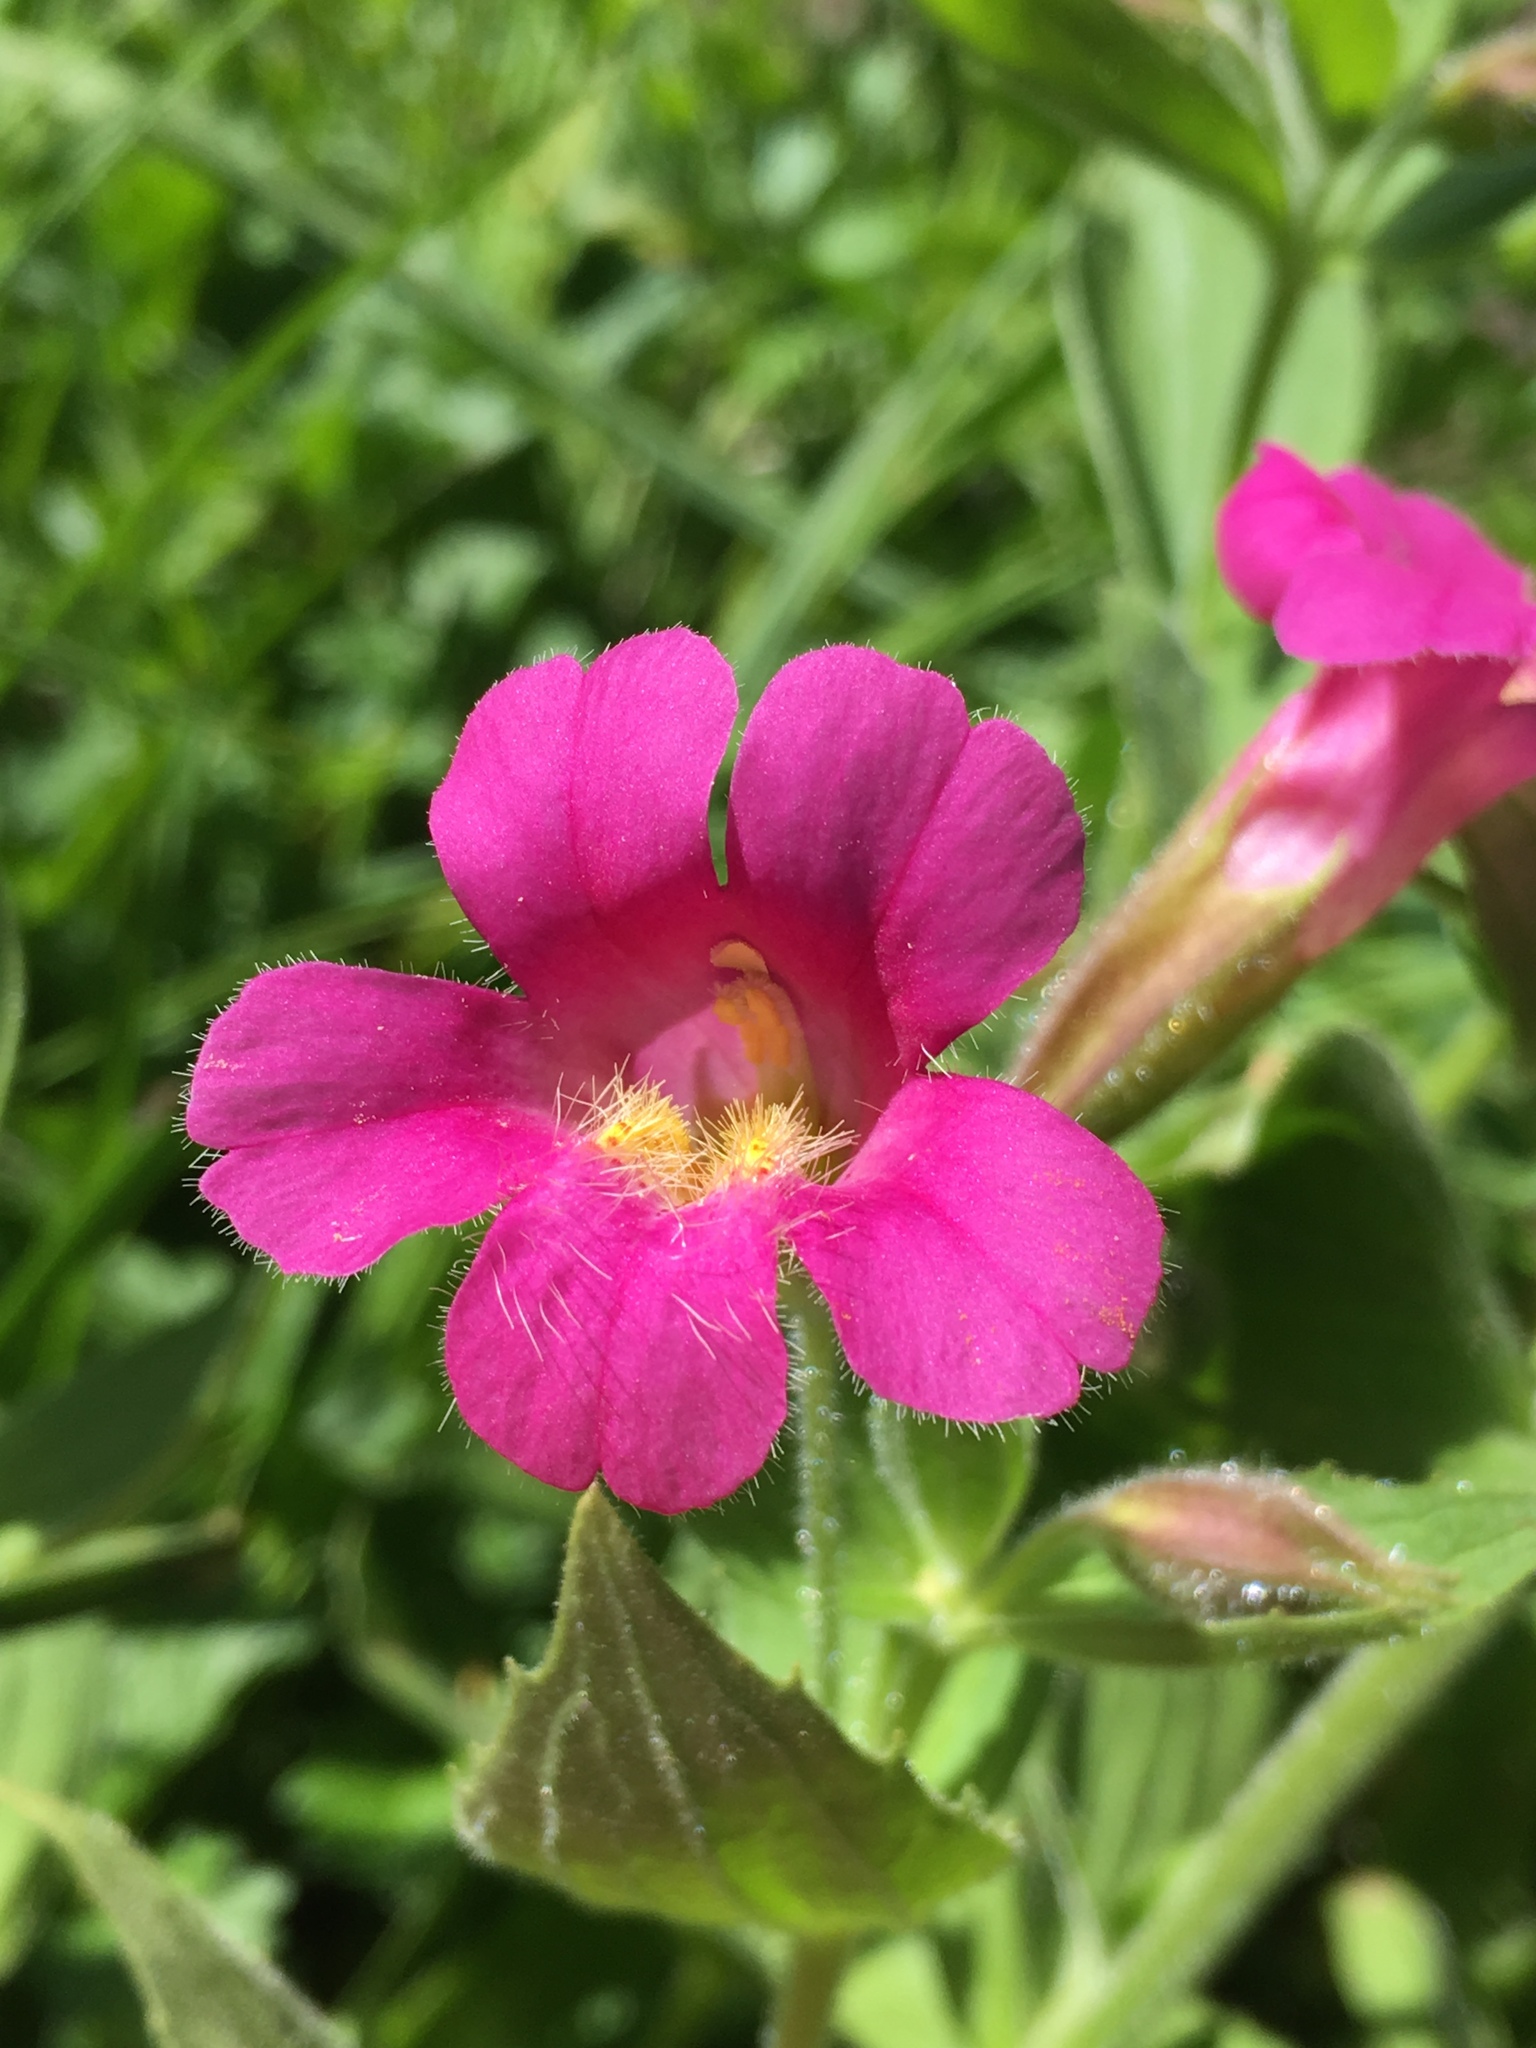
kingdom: Plantae
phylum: Tracheophyta
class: Magnoliopsida
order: Lamiales
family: Phrymaceae
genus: Erythranthe
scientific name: Erythranthe lewisii
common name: Lewis's monkey-flower
